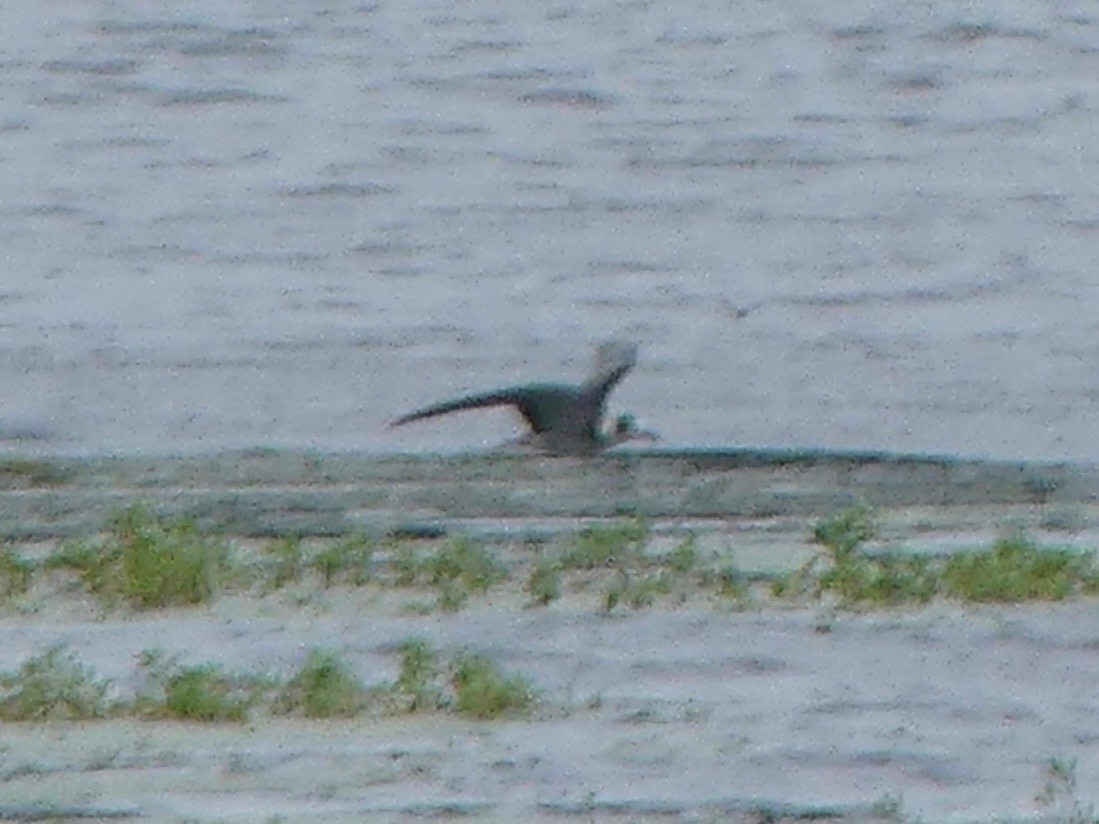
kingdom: Animalia
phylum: Chordata
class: Aves
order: Charadriiformes
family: Laridae
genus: Chlidonias
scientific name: Chlidonias niger
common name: Black tern
